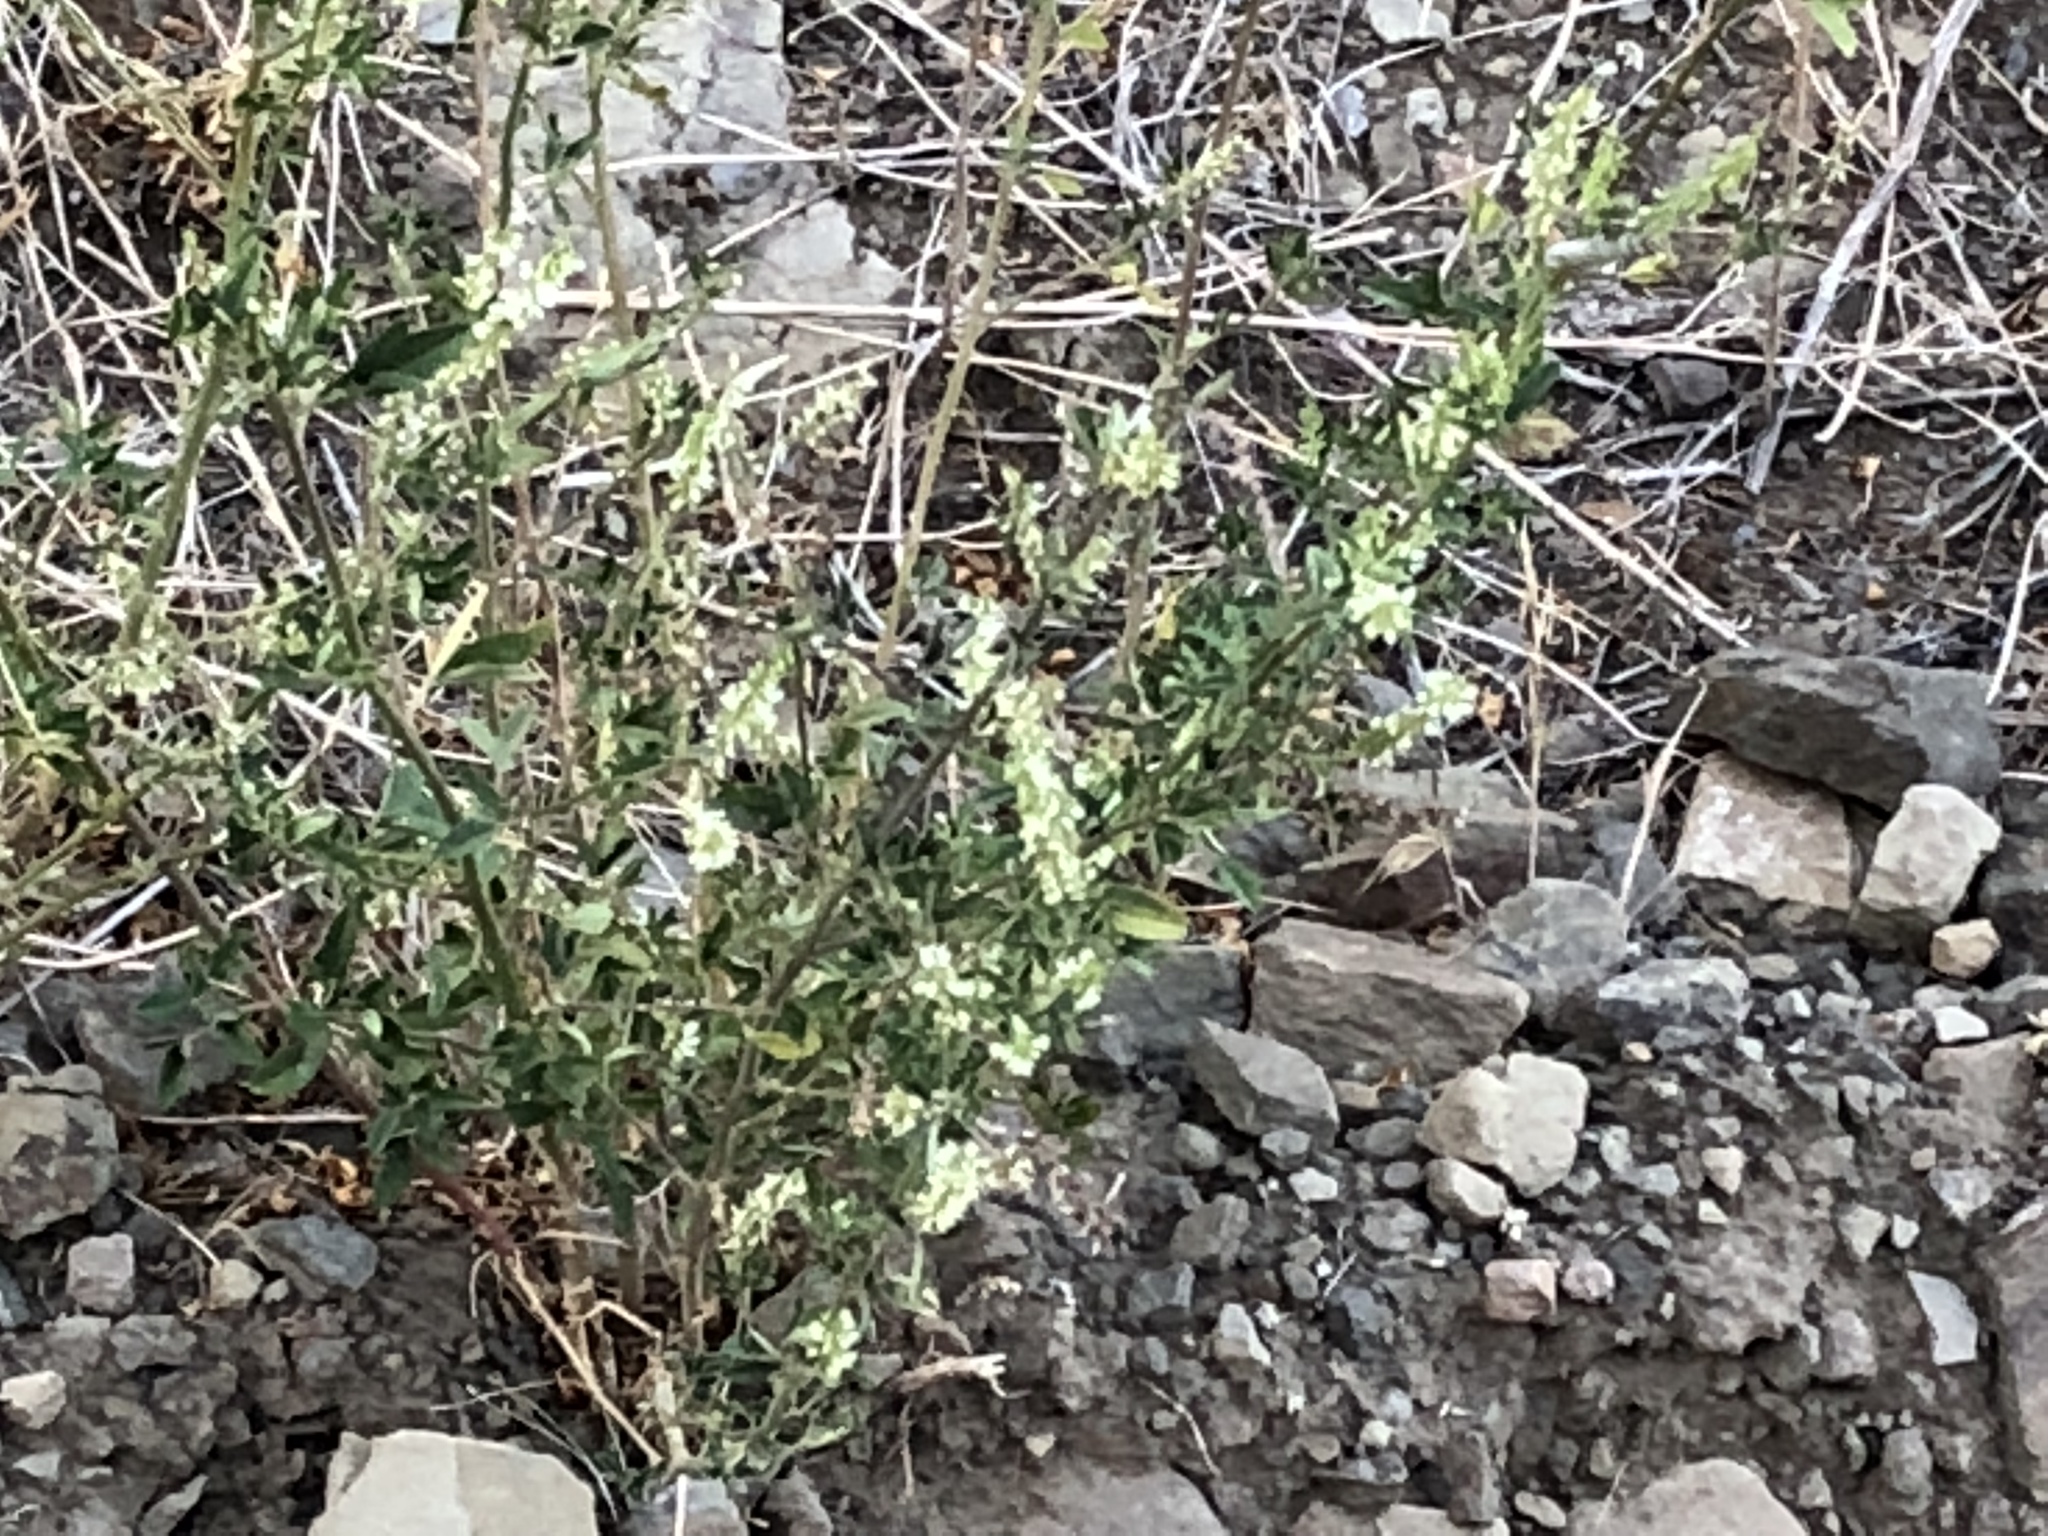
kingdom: Plantae
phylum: Tracheophyta
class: Magnoliopsida
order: Fabales
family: Fabaceae
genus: Melilotus
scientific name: Melilotus albus
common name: White melilot
